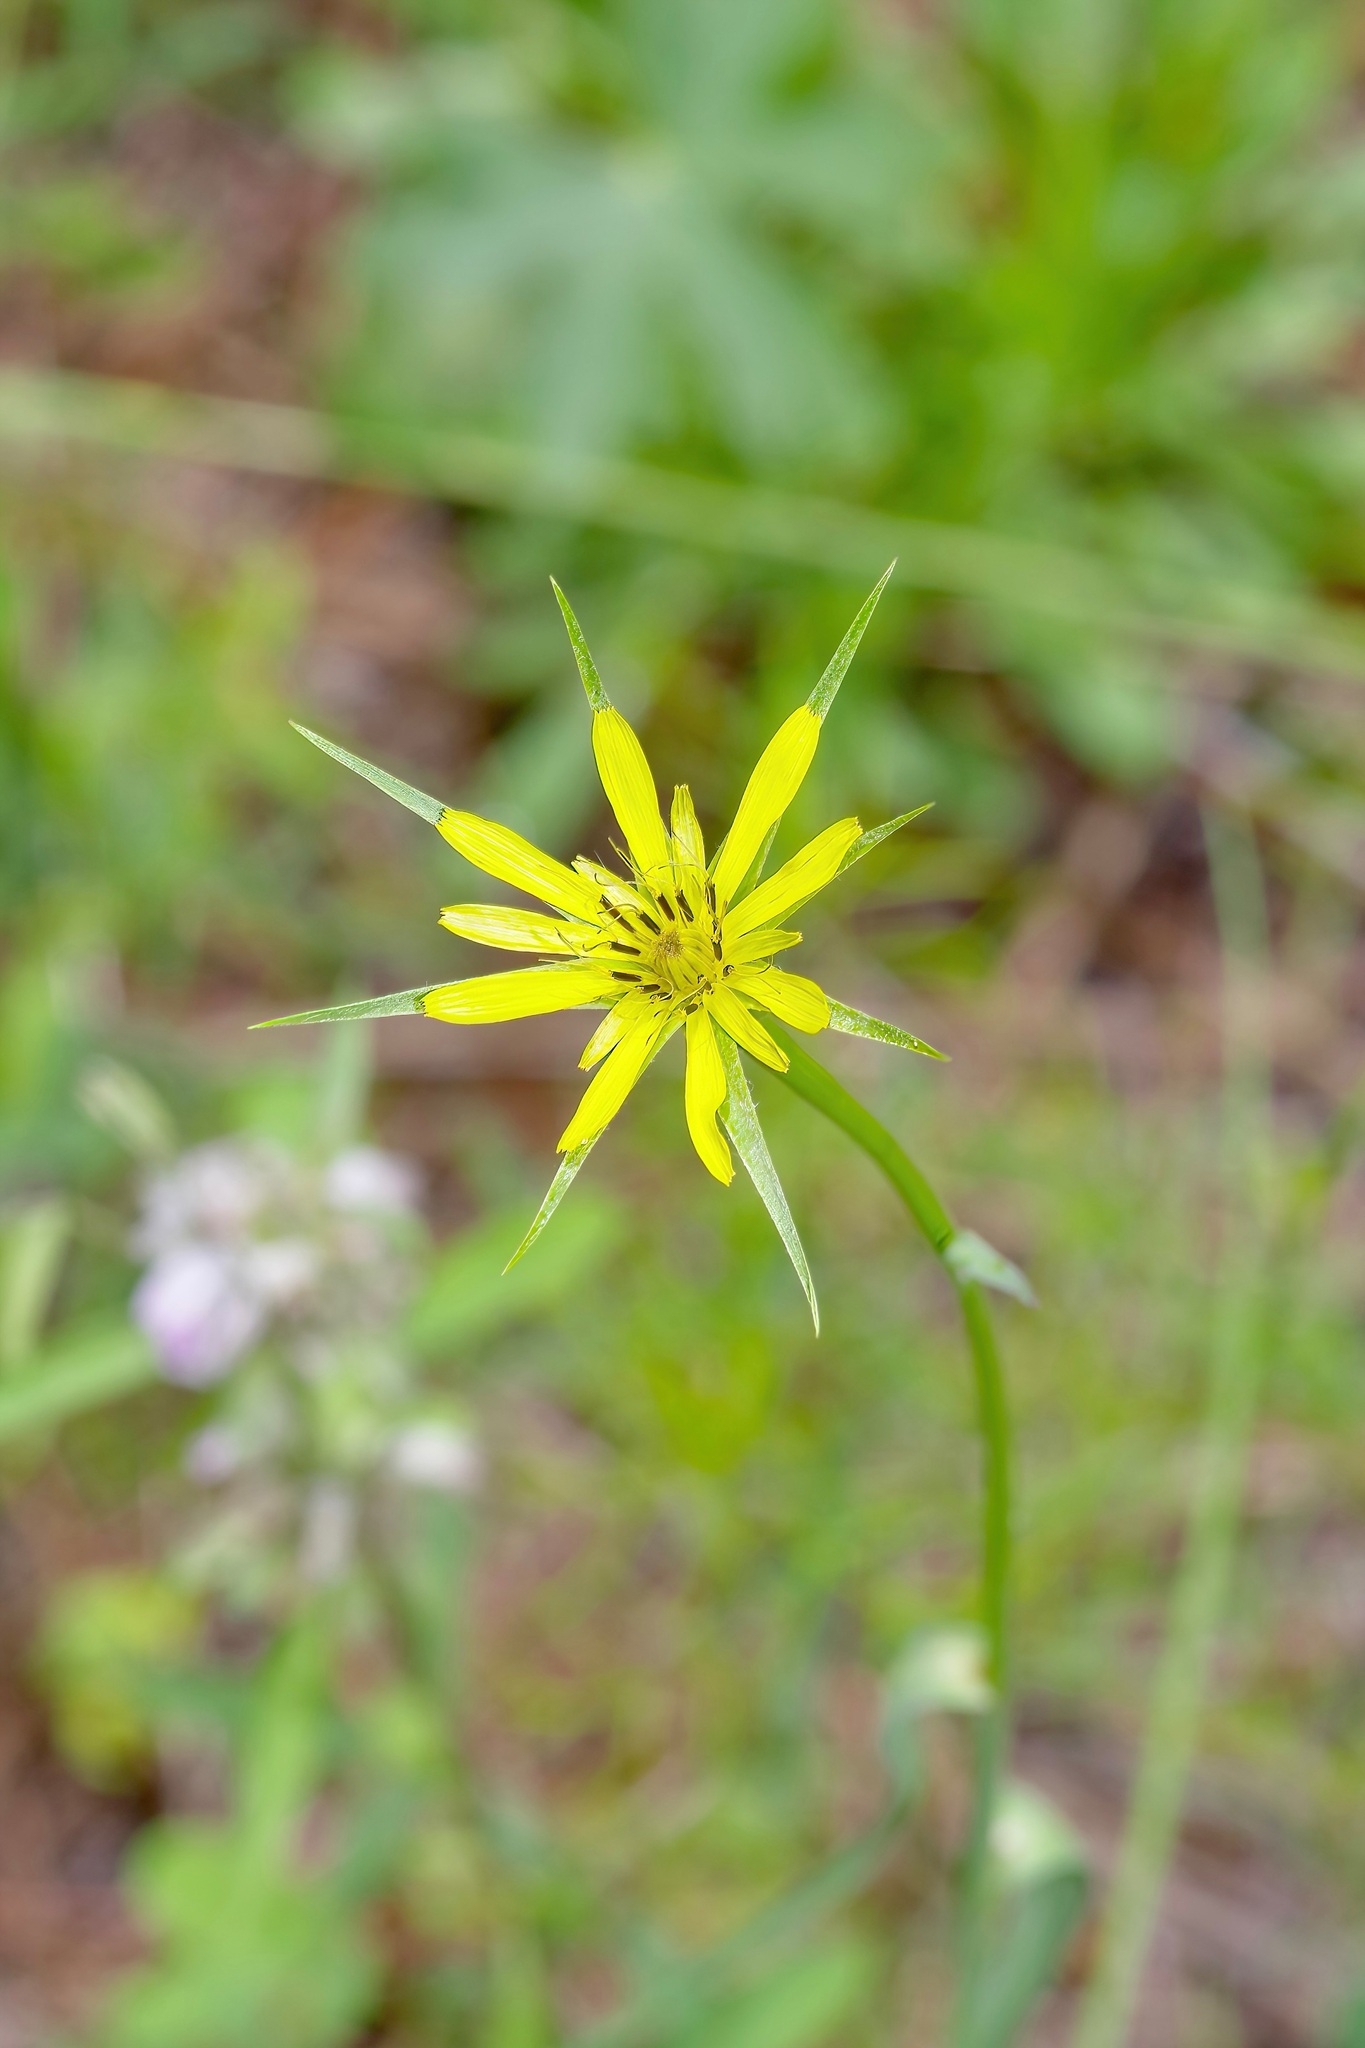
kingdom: Plantae
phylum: Tracheophyta
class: Magnoliopsida
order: Asterales
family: Asteraceae
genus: Tragopogon
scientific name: Tragopogon dubius
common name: Yellow salsify
